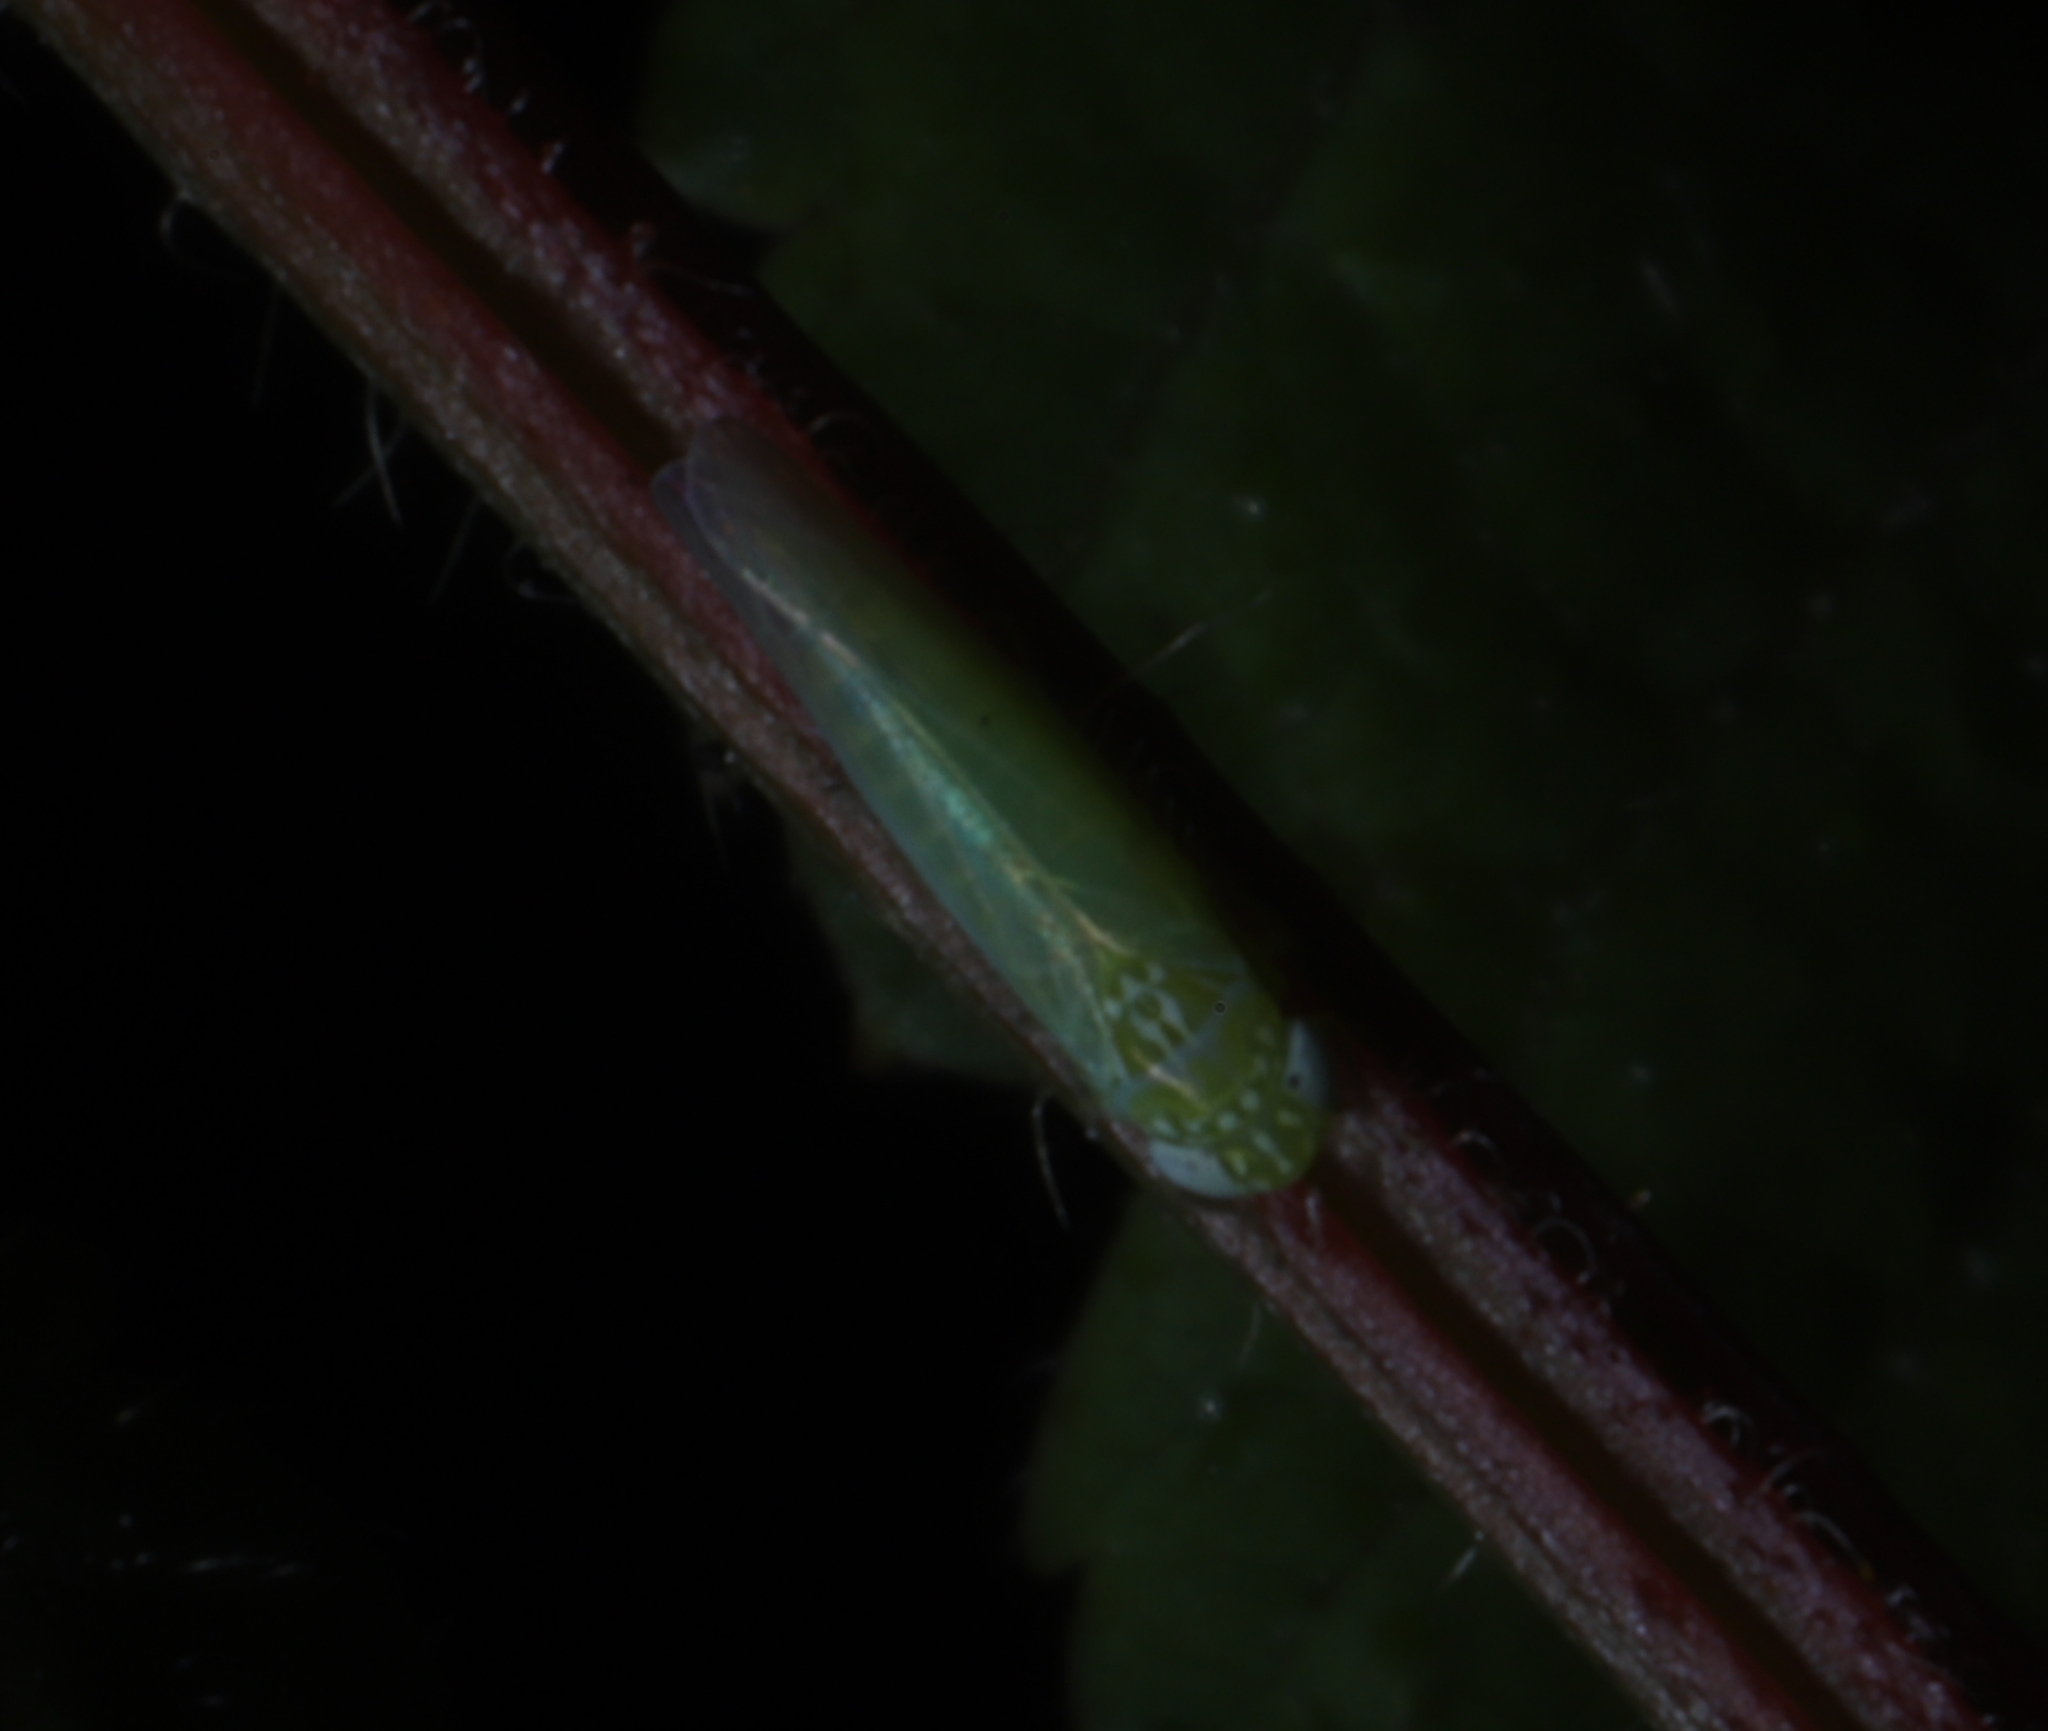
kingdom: Animalia
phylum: Arthropoda
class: Insecta
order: Hemiptera
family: Cicadellidae
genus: Empoasca
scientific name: Empoasca fabae
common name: Potato leafhopper
